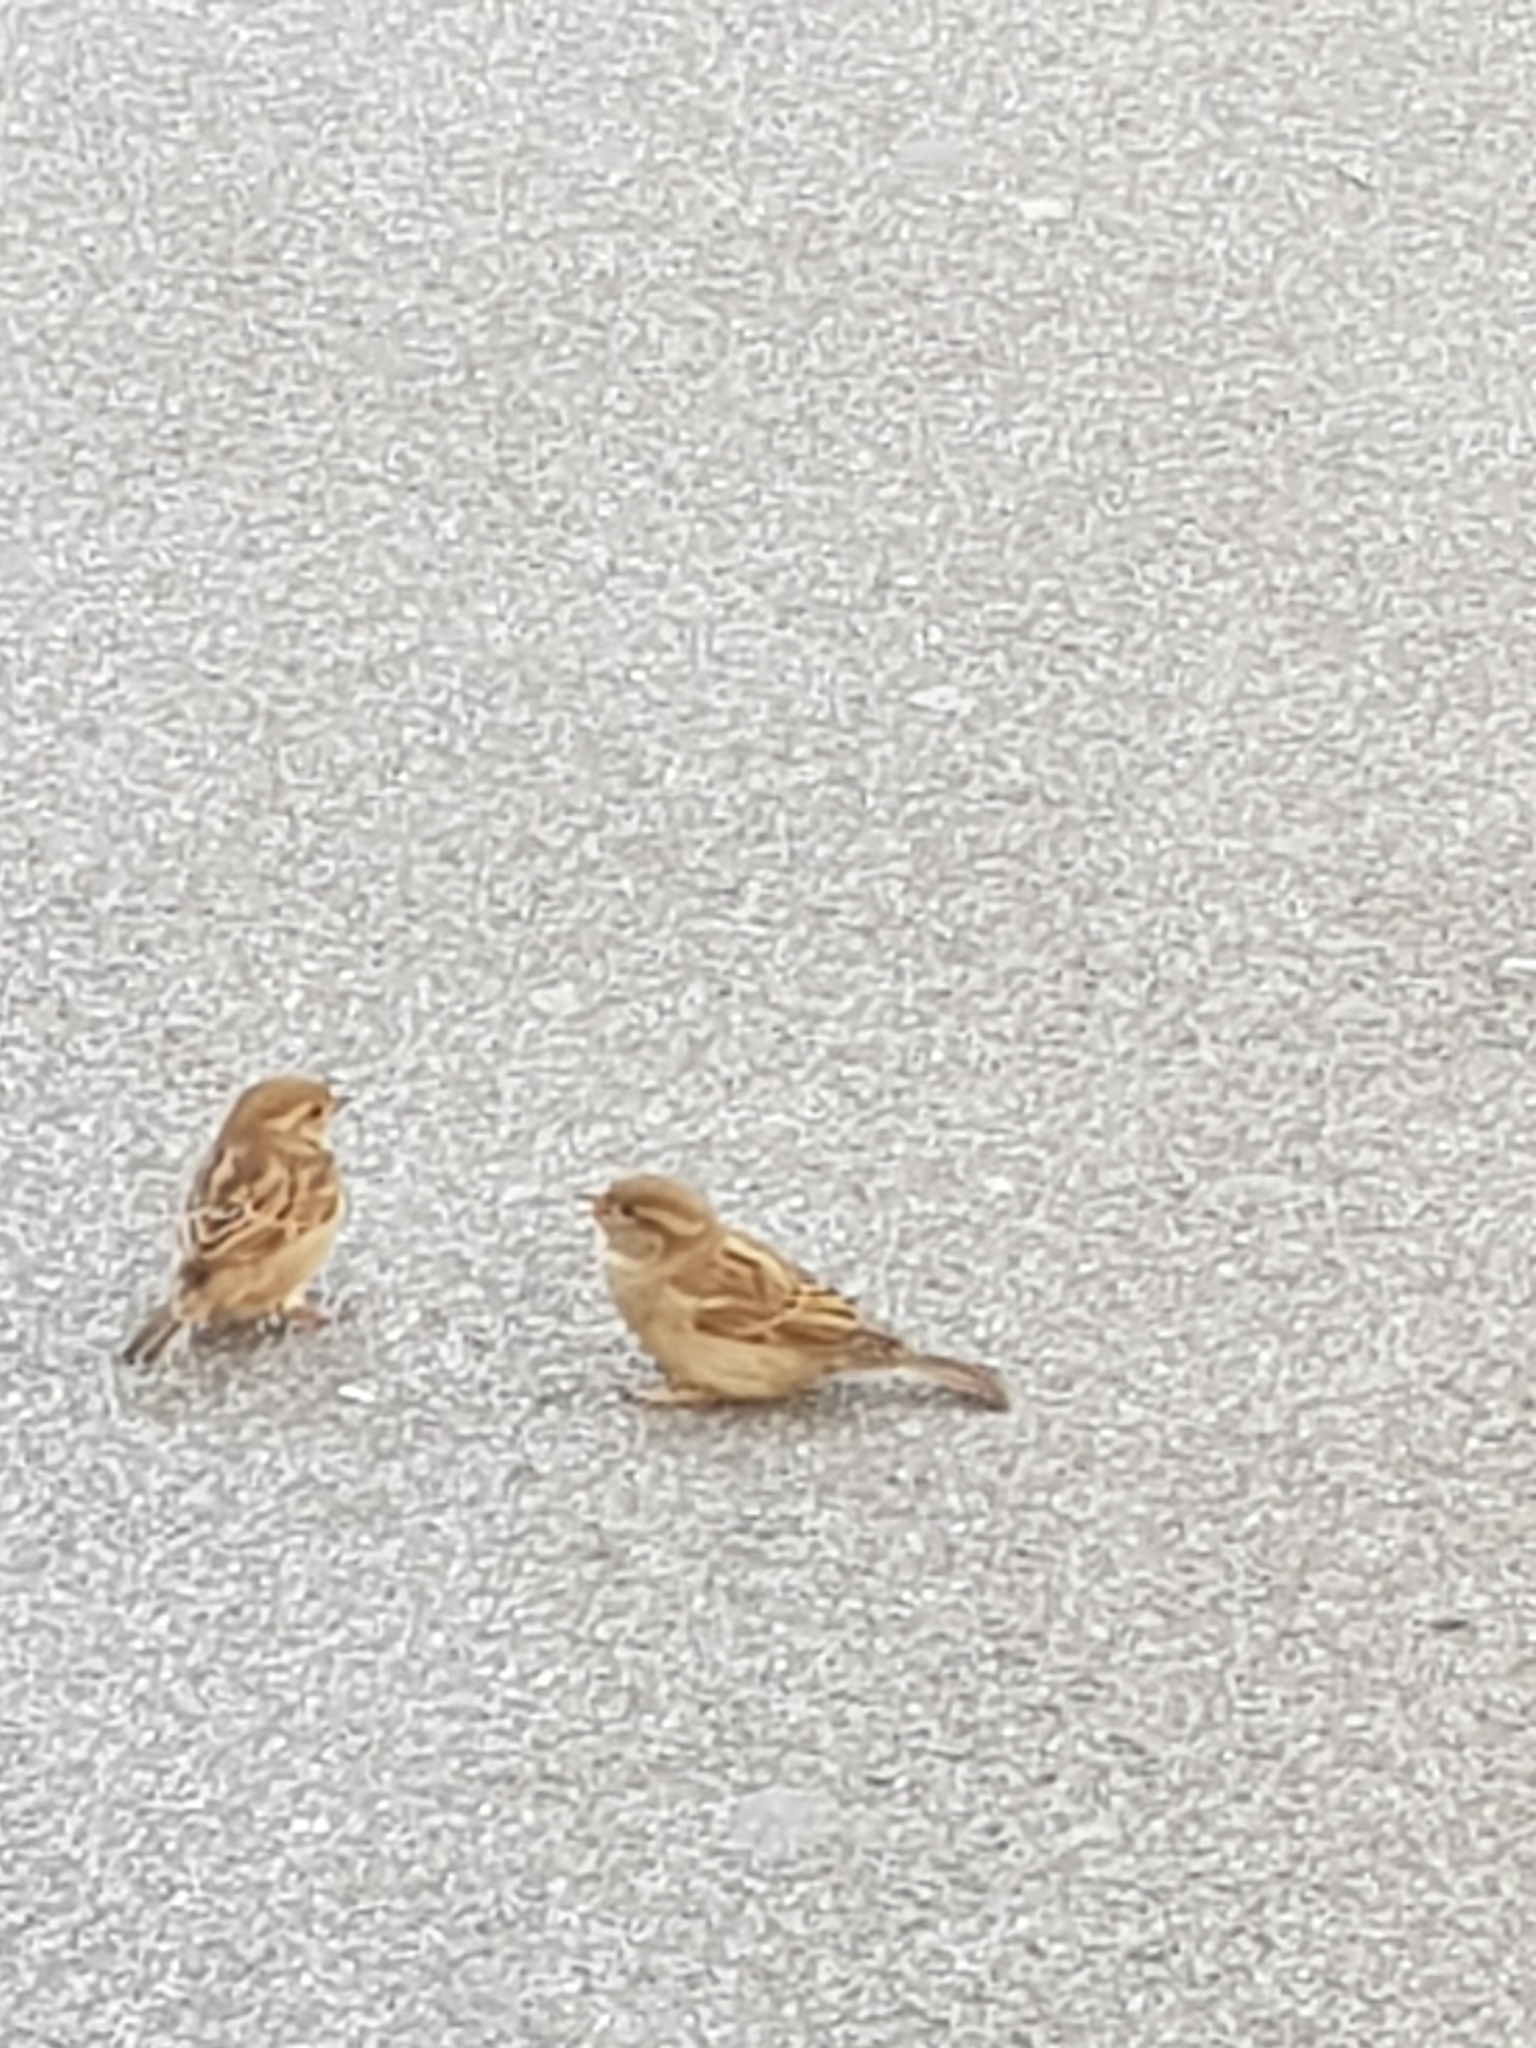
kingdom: Animalia
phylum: Chordata
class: Aves
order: Passeriformes
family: Passeridae
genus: Passer
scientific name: Passer domesticus
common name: House sparrow
